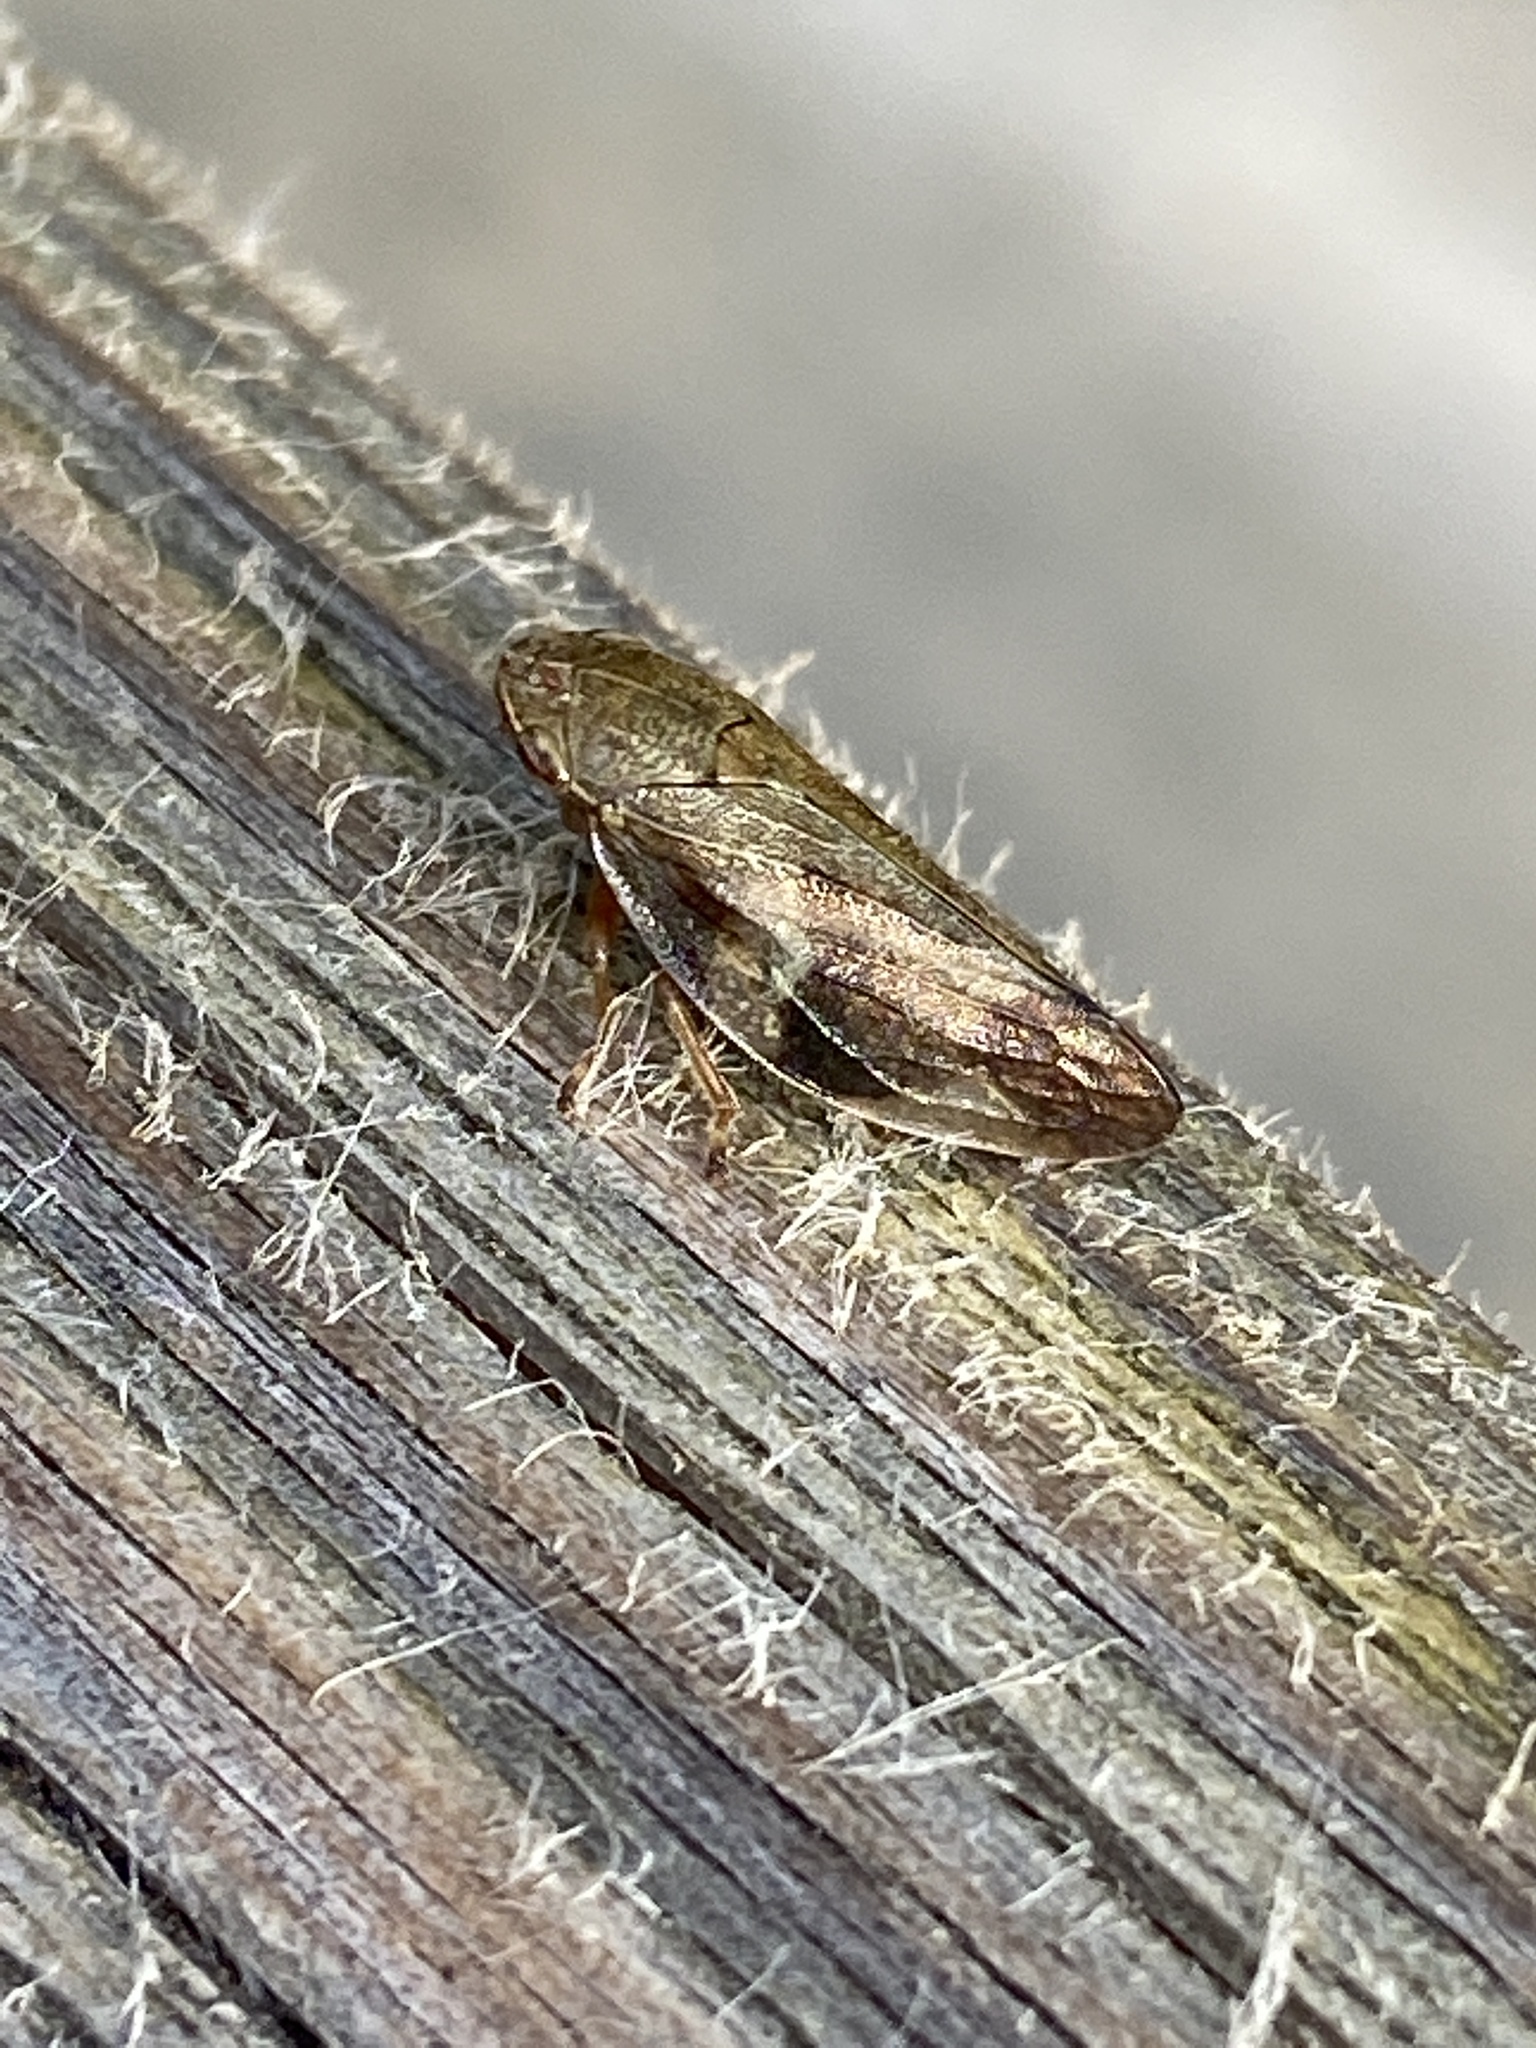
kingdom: Animalia
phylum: Arthropoda
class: Insecta
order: Hemiptera
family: Aphrophoridae
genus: Aphrophora
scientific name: Aphrophora alni
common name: European alder spittlebug
